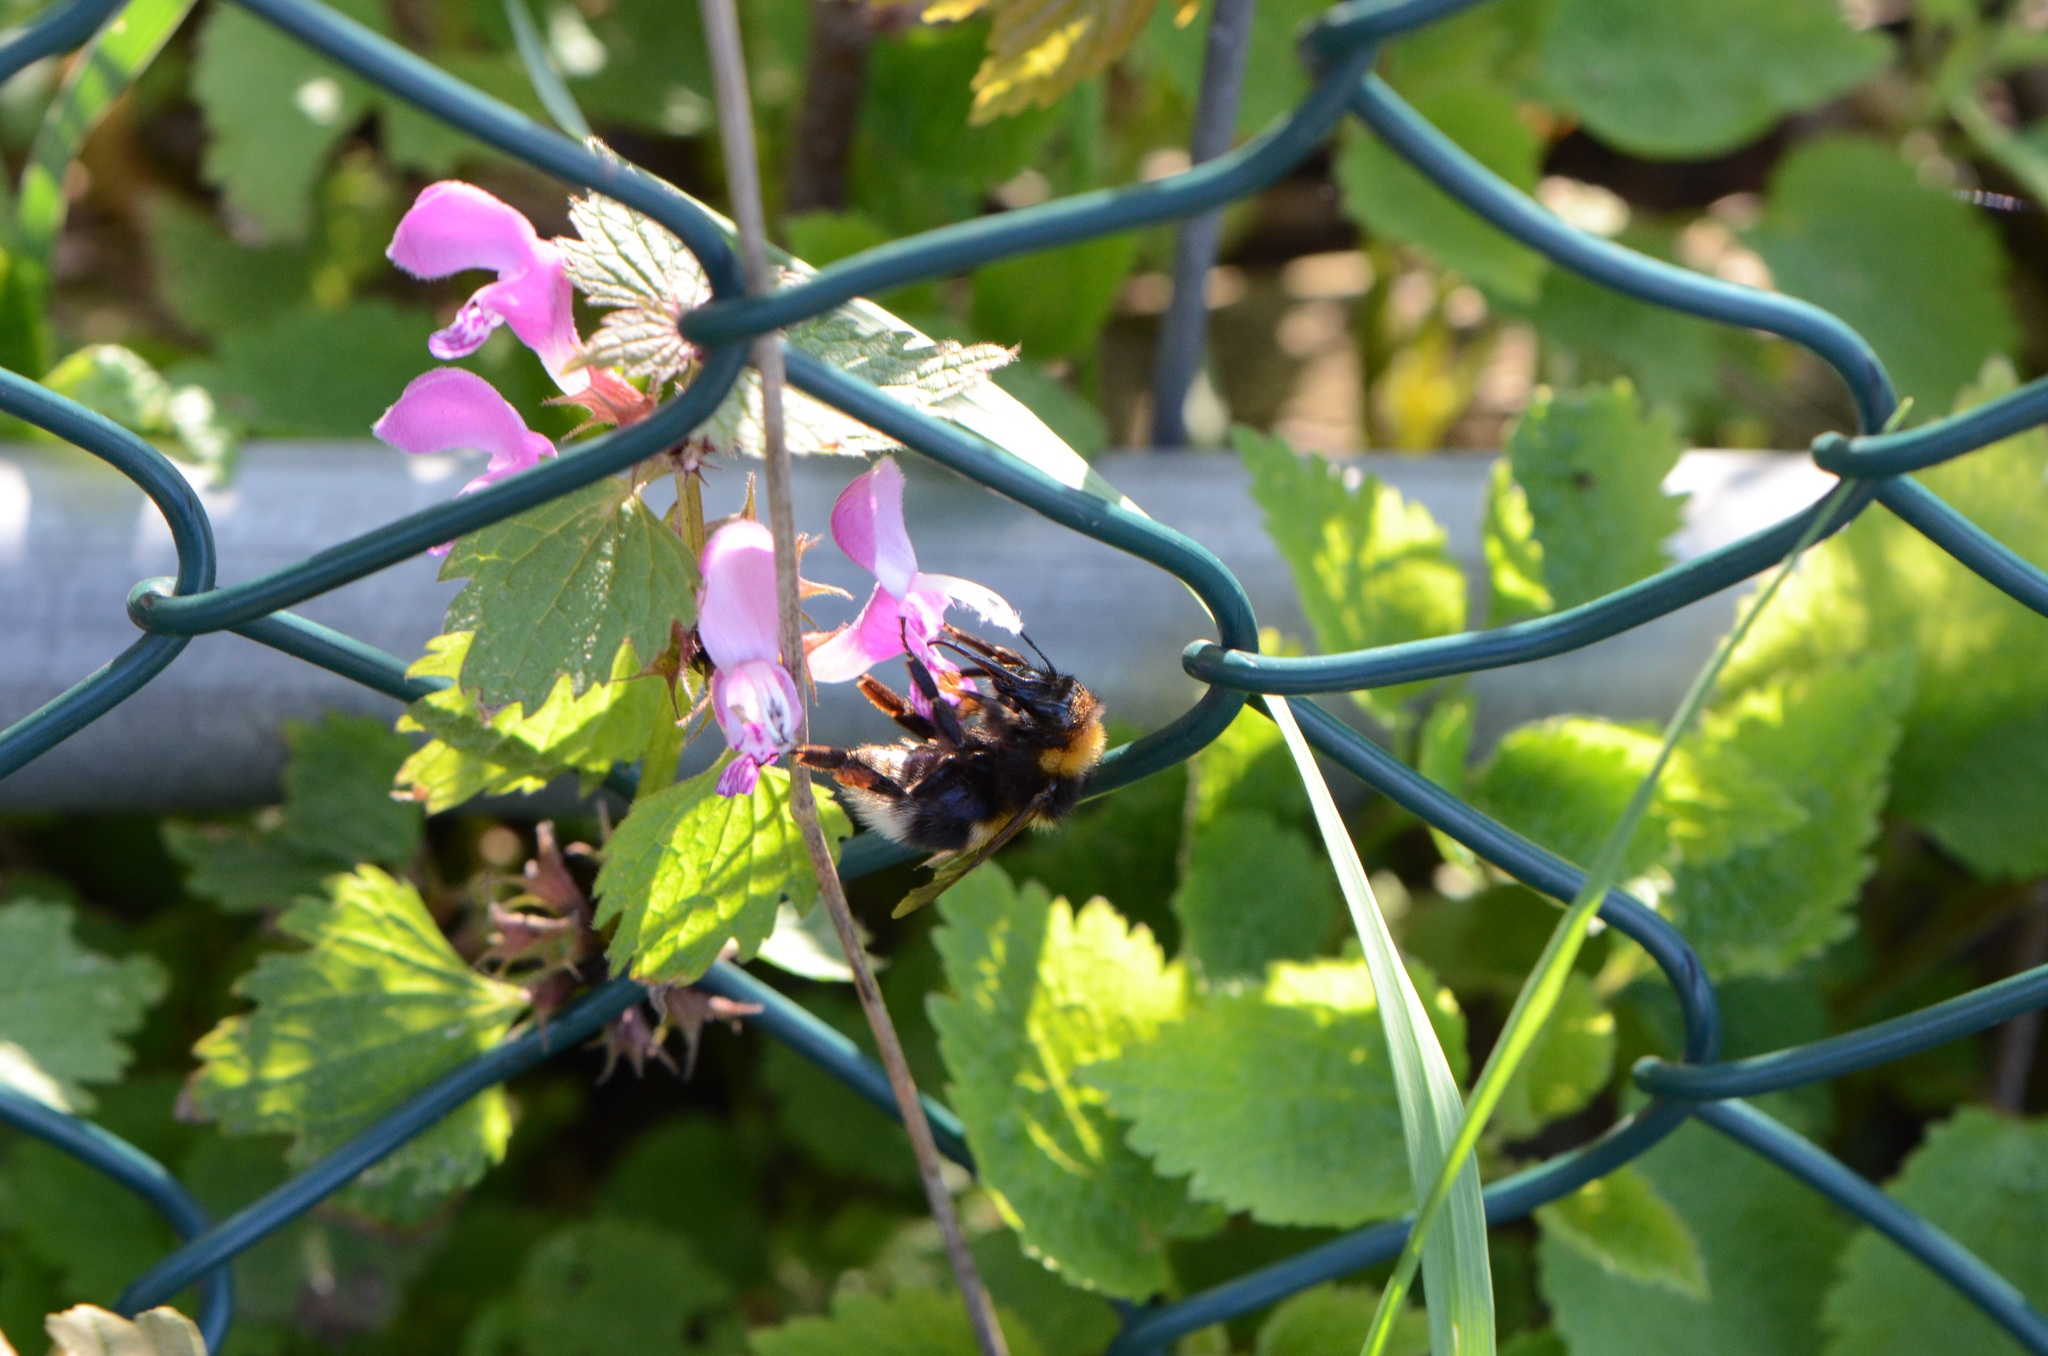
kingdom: Plantae
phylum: Tracheophyta
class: Magnoliopsida
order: Lamiales
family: Lamiaceae
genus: Lamium
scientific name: Lamium maculatum
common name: Spotted dead-nettle
